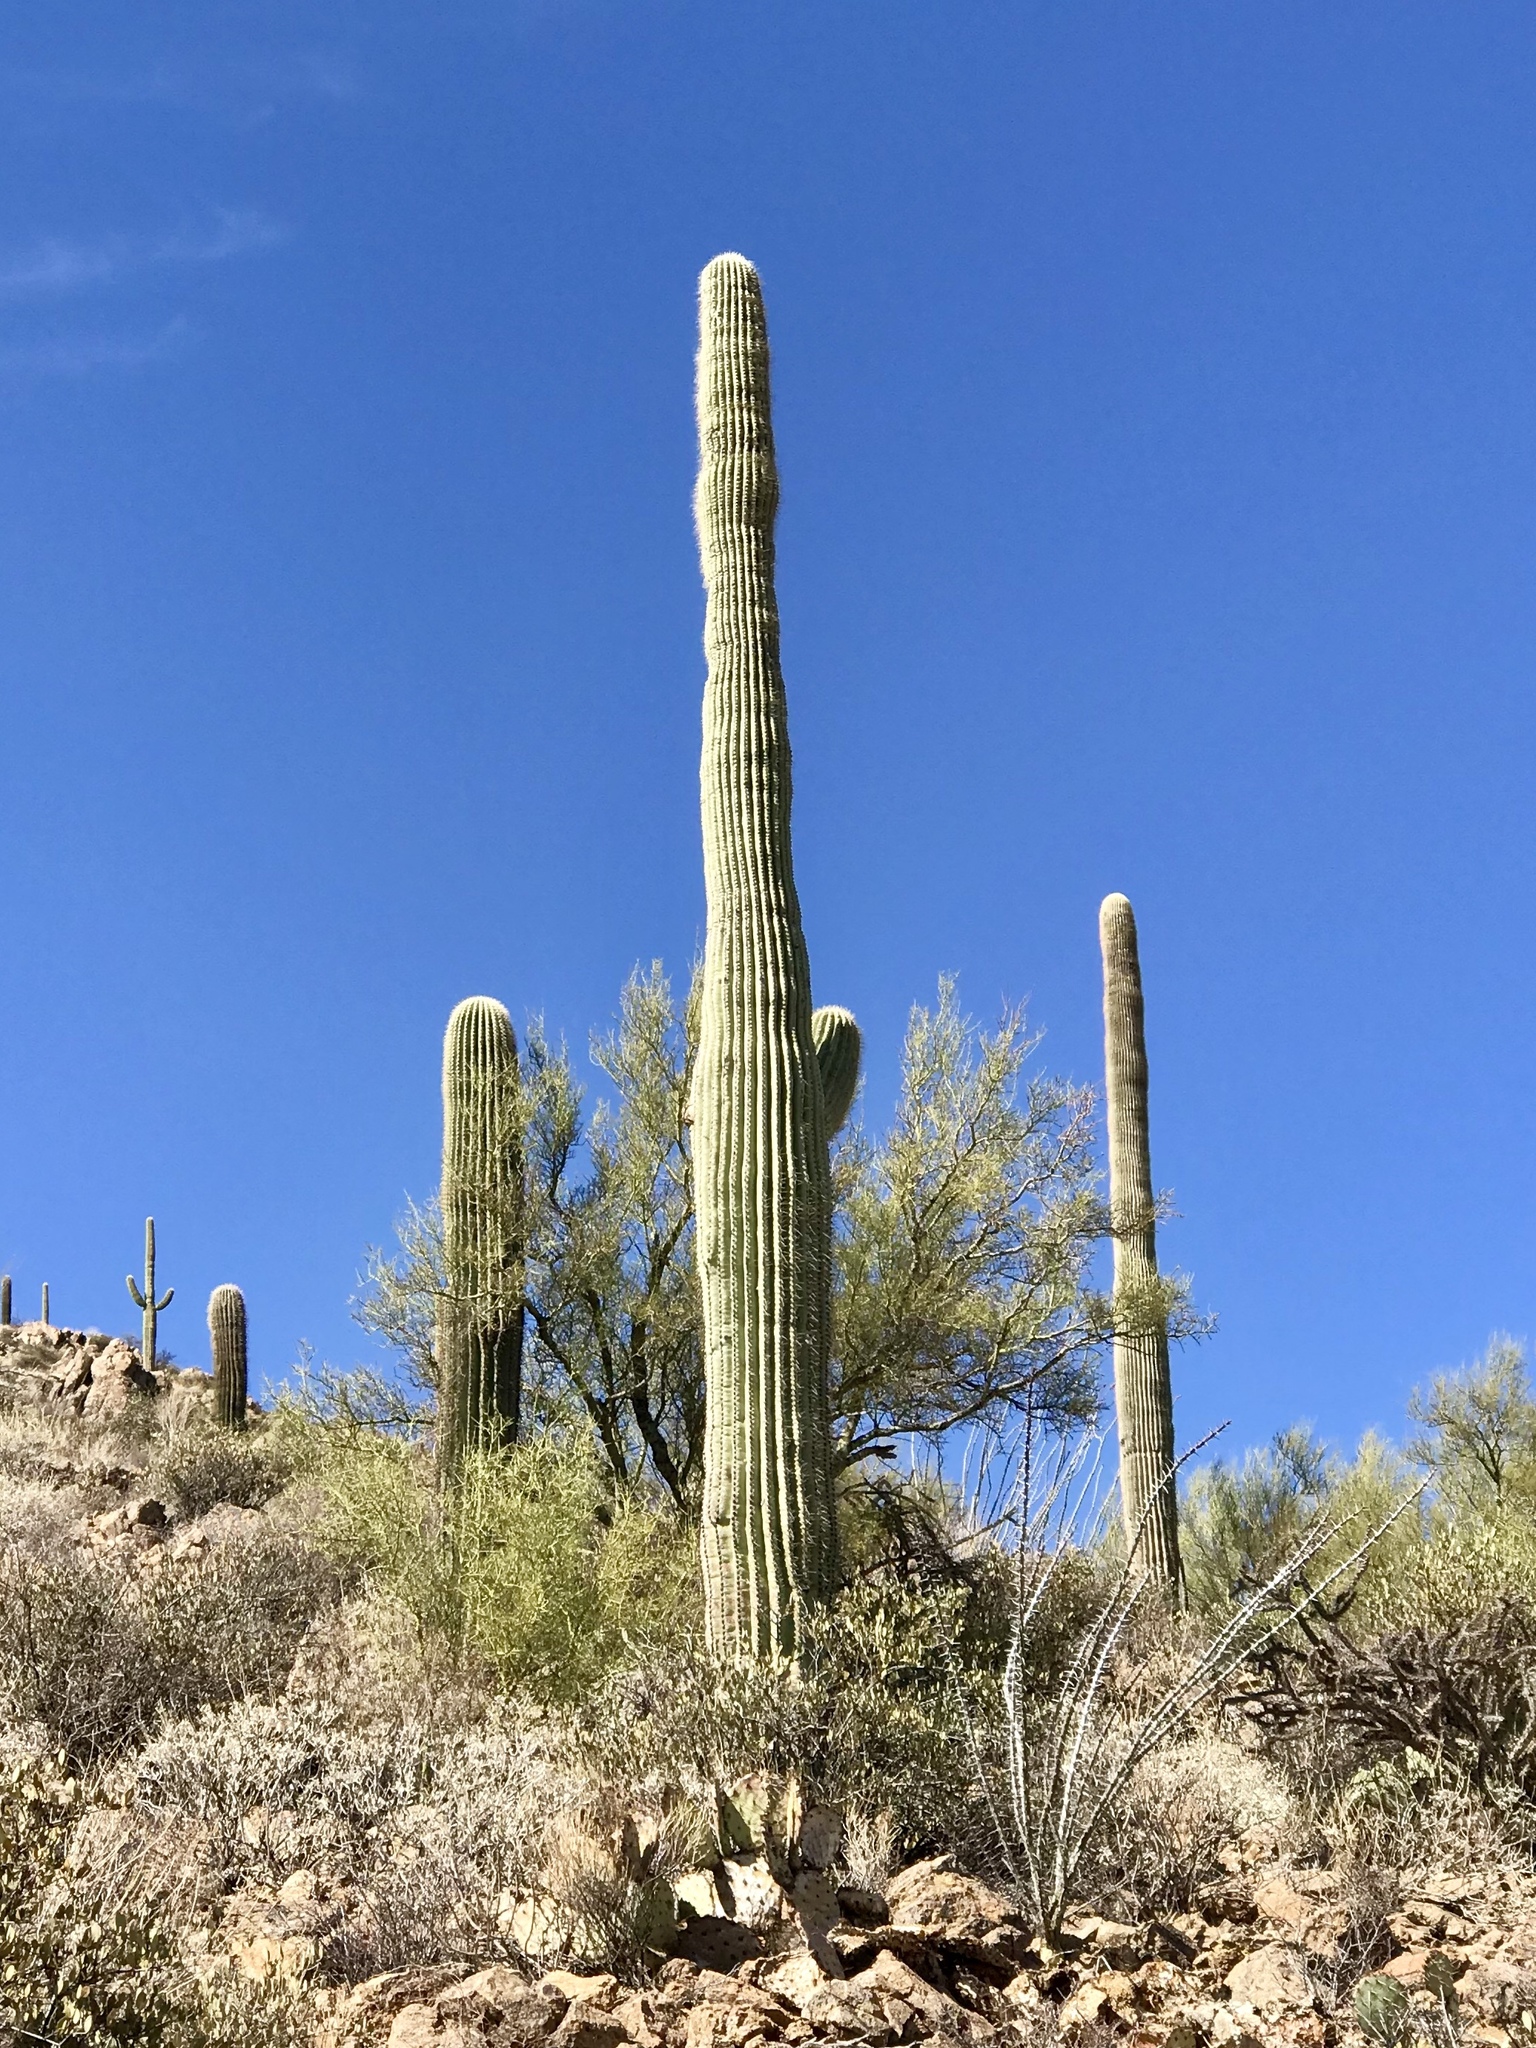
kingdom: Plantae
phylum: Tracheophyta
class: Magnoliopsida
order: Caryophyllales
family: Cactaceae
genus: Carnegiea
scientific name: Carnegiea gigantea
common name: Saguaro
